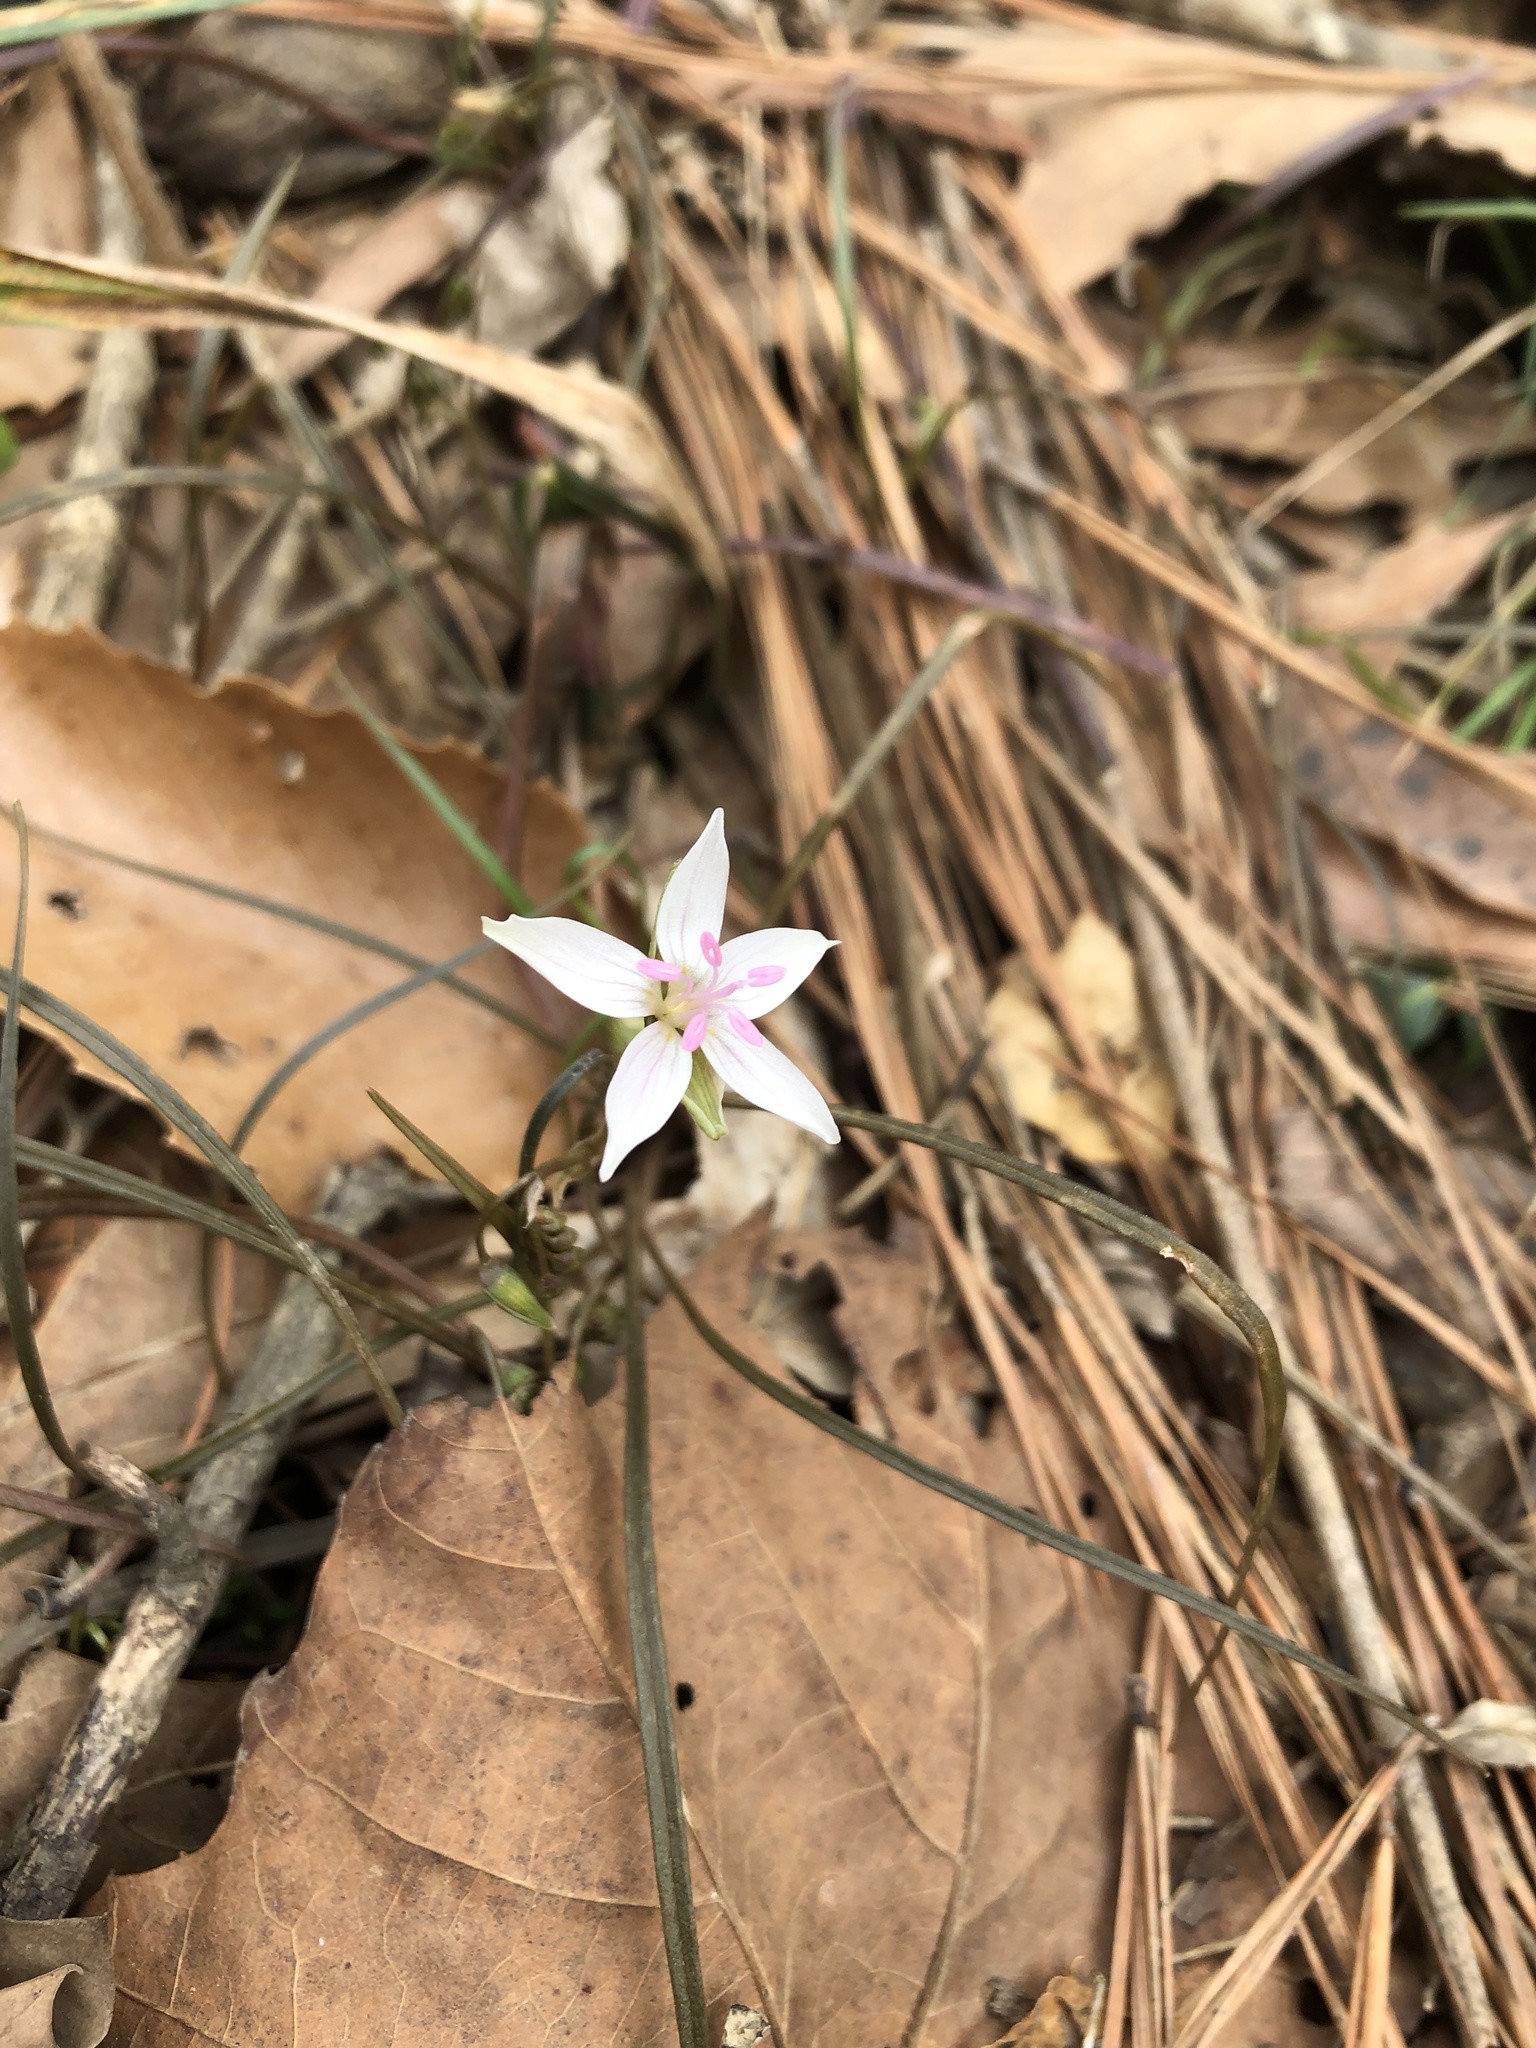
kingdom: Plantae
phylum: Tracheophyta
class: Magnoliopsida
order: Caryophyllales
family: Montiaceae
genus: Claytonia
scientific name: Claytonia virginica
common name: Virginia springbeauty
